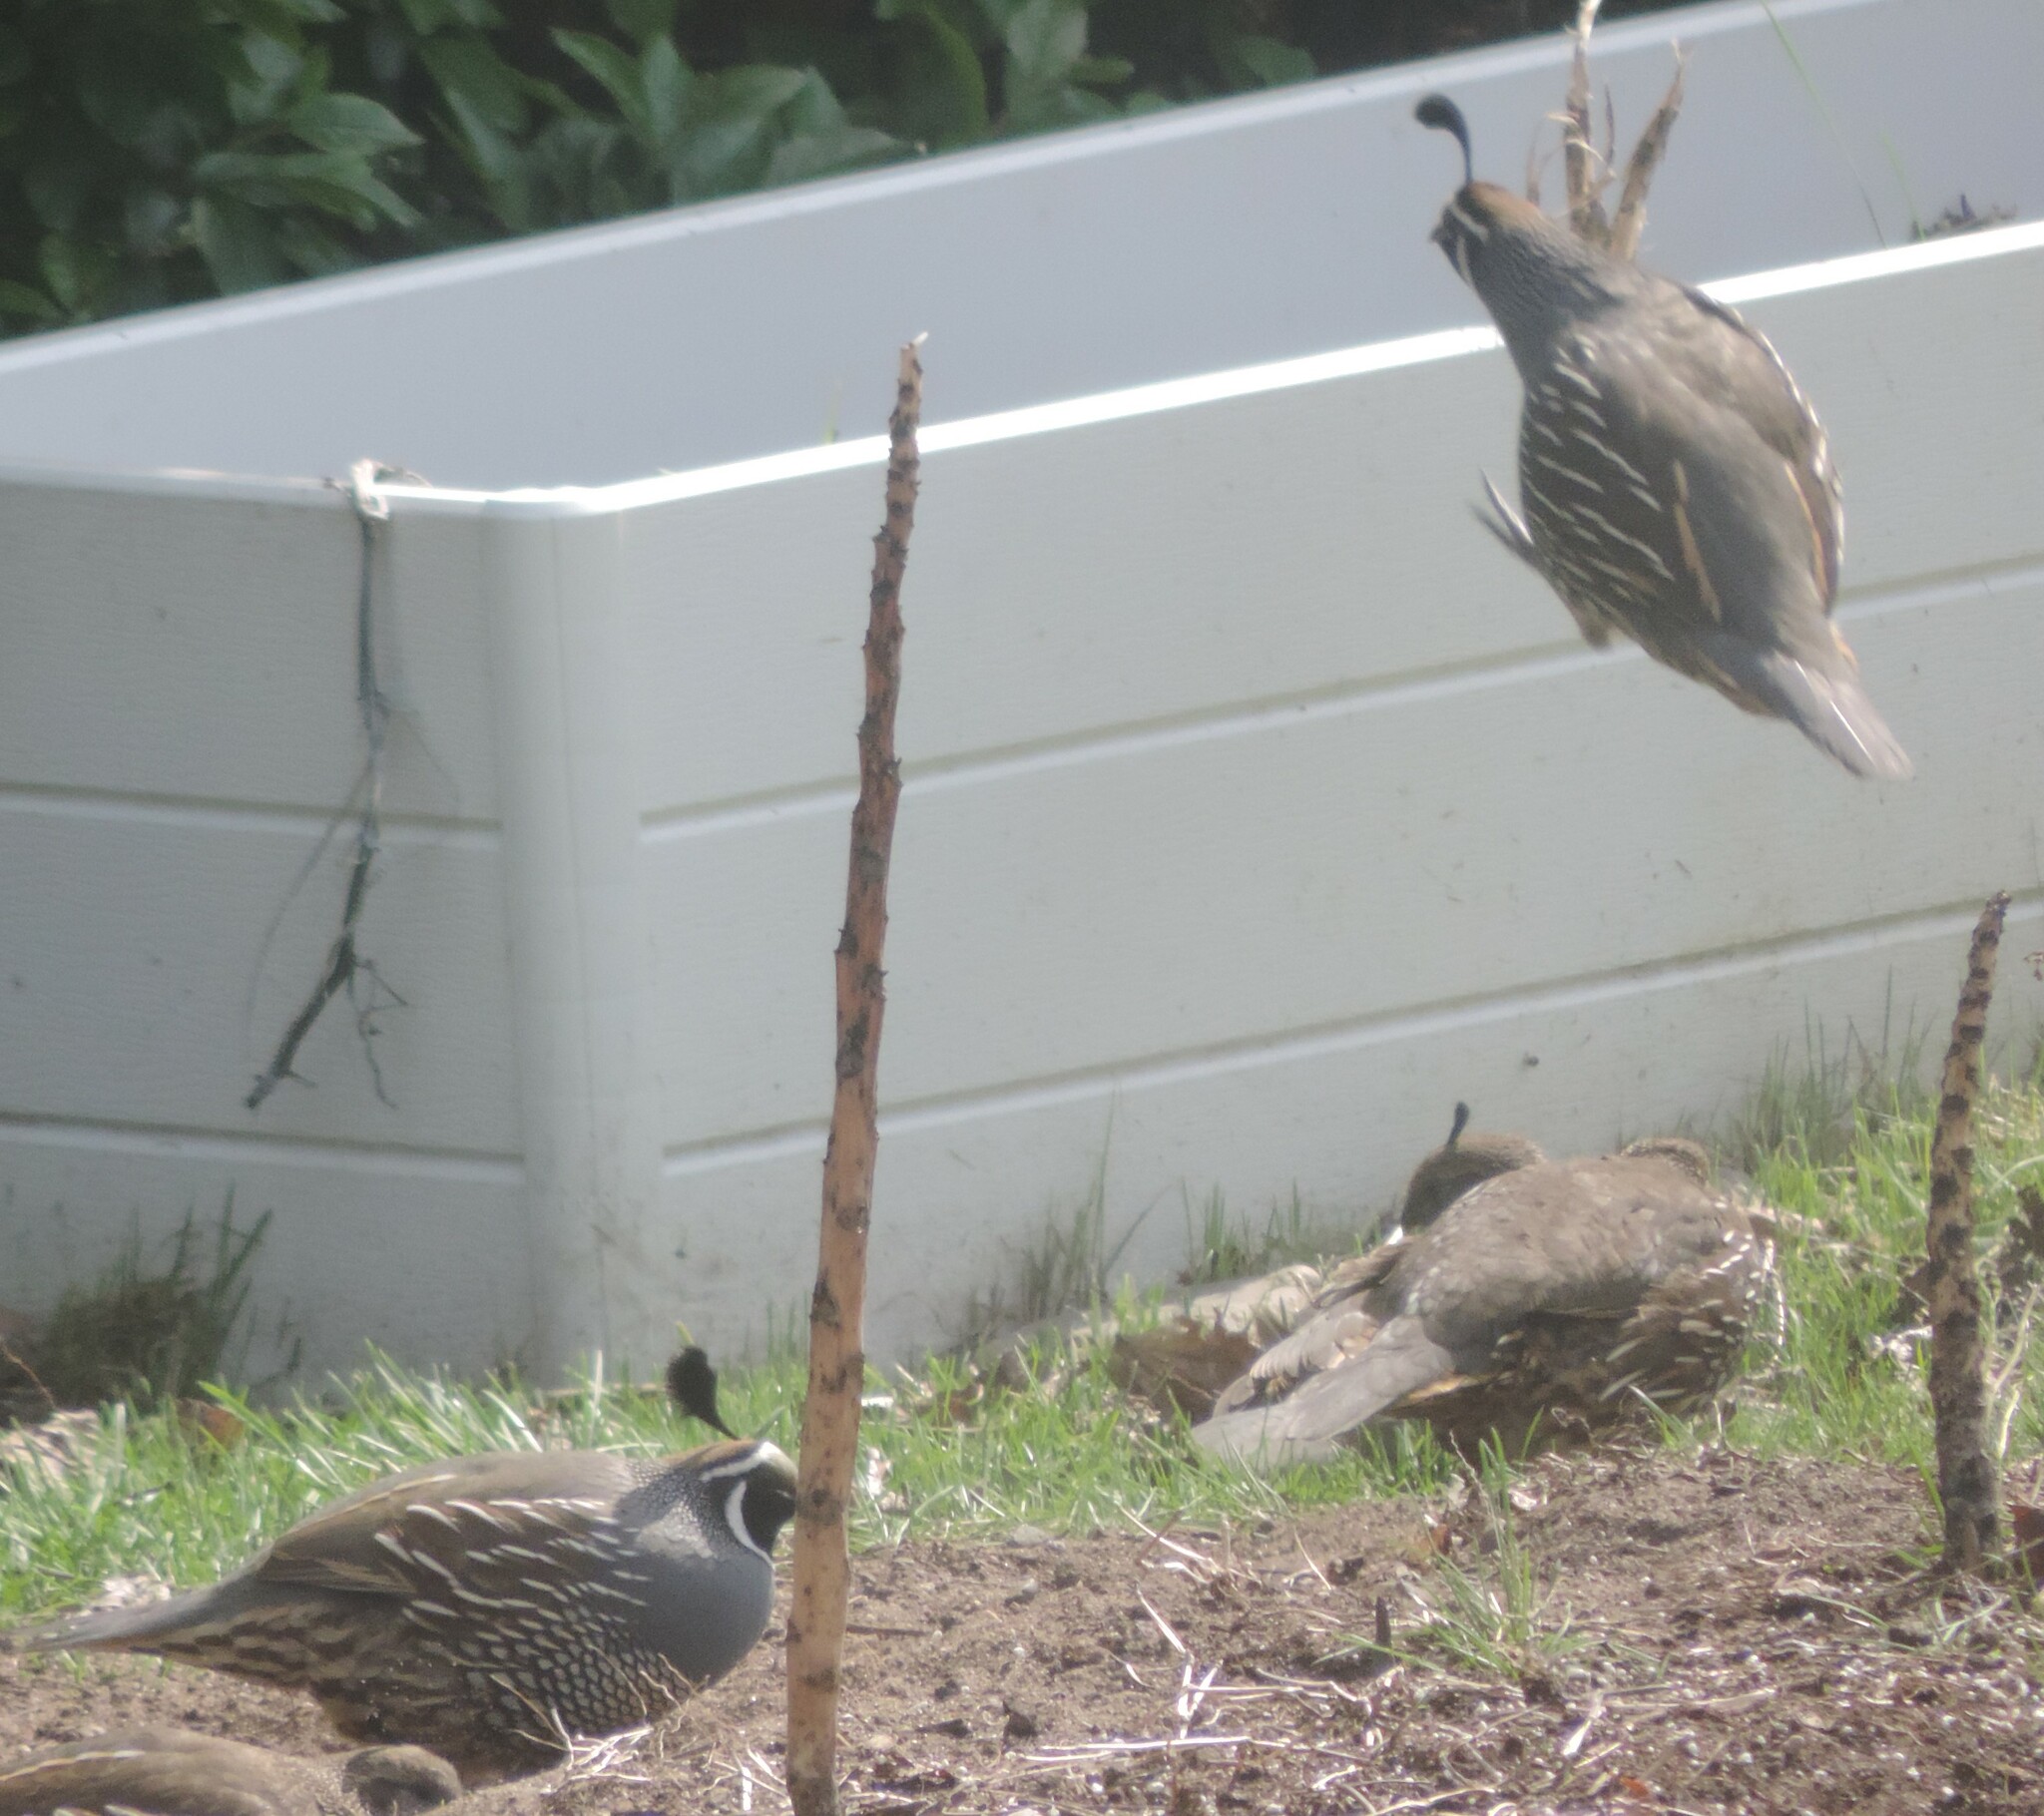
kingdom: Animalia
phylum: Chordata
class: Aves
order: Galliformes
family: Odontophoridae
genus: Callipepla
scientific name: Callipepla californica
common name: California quail
